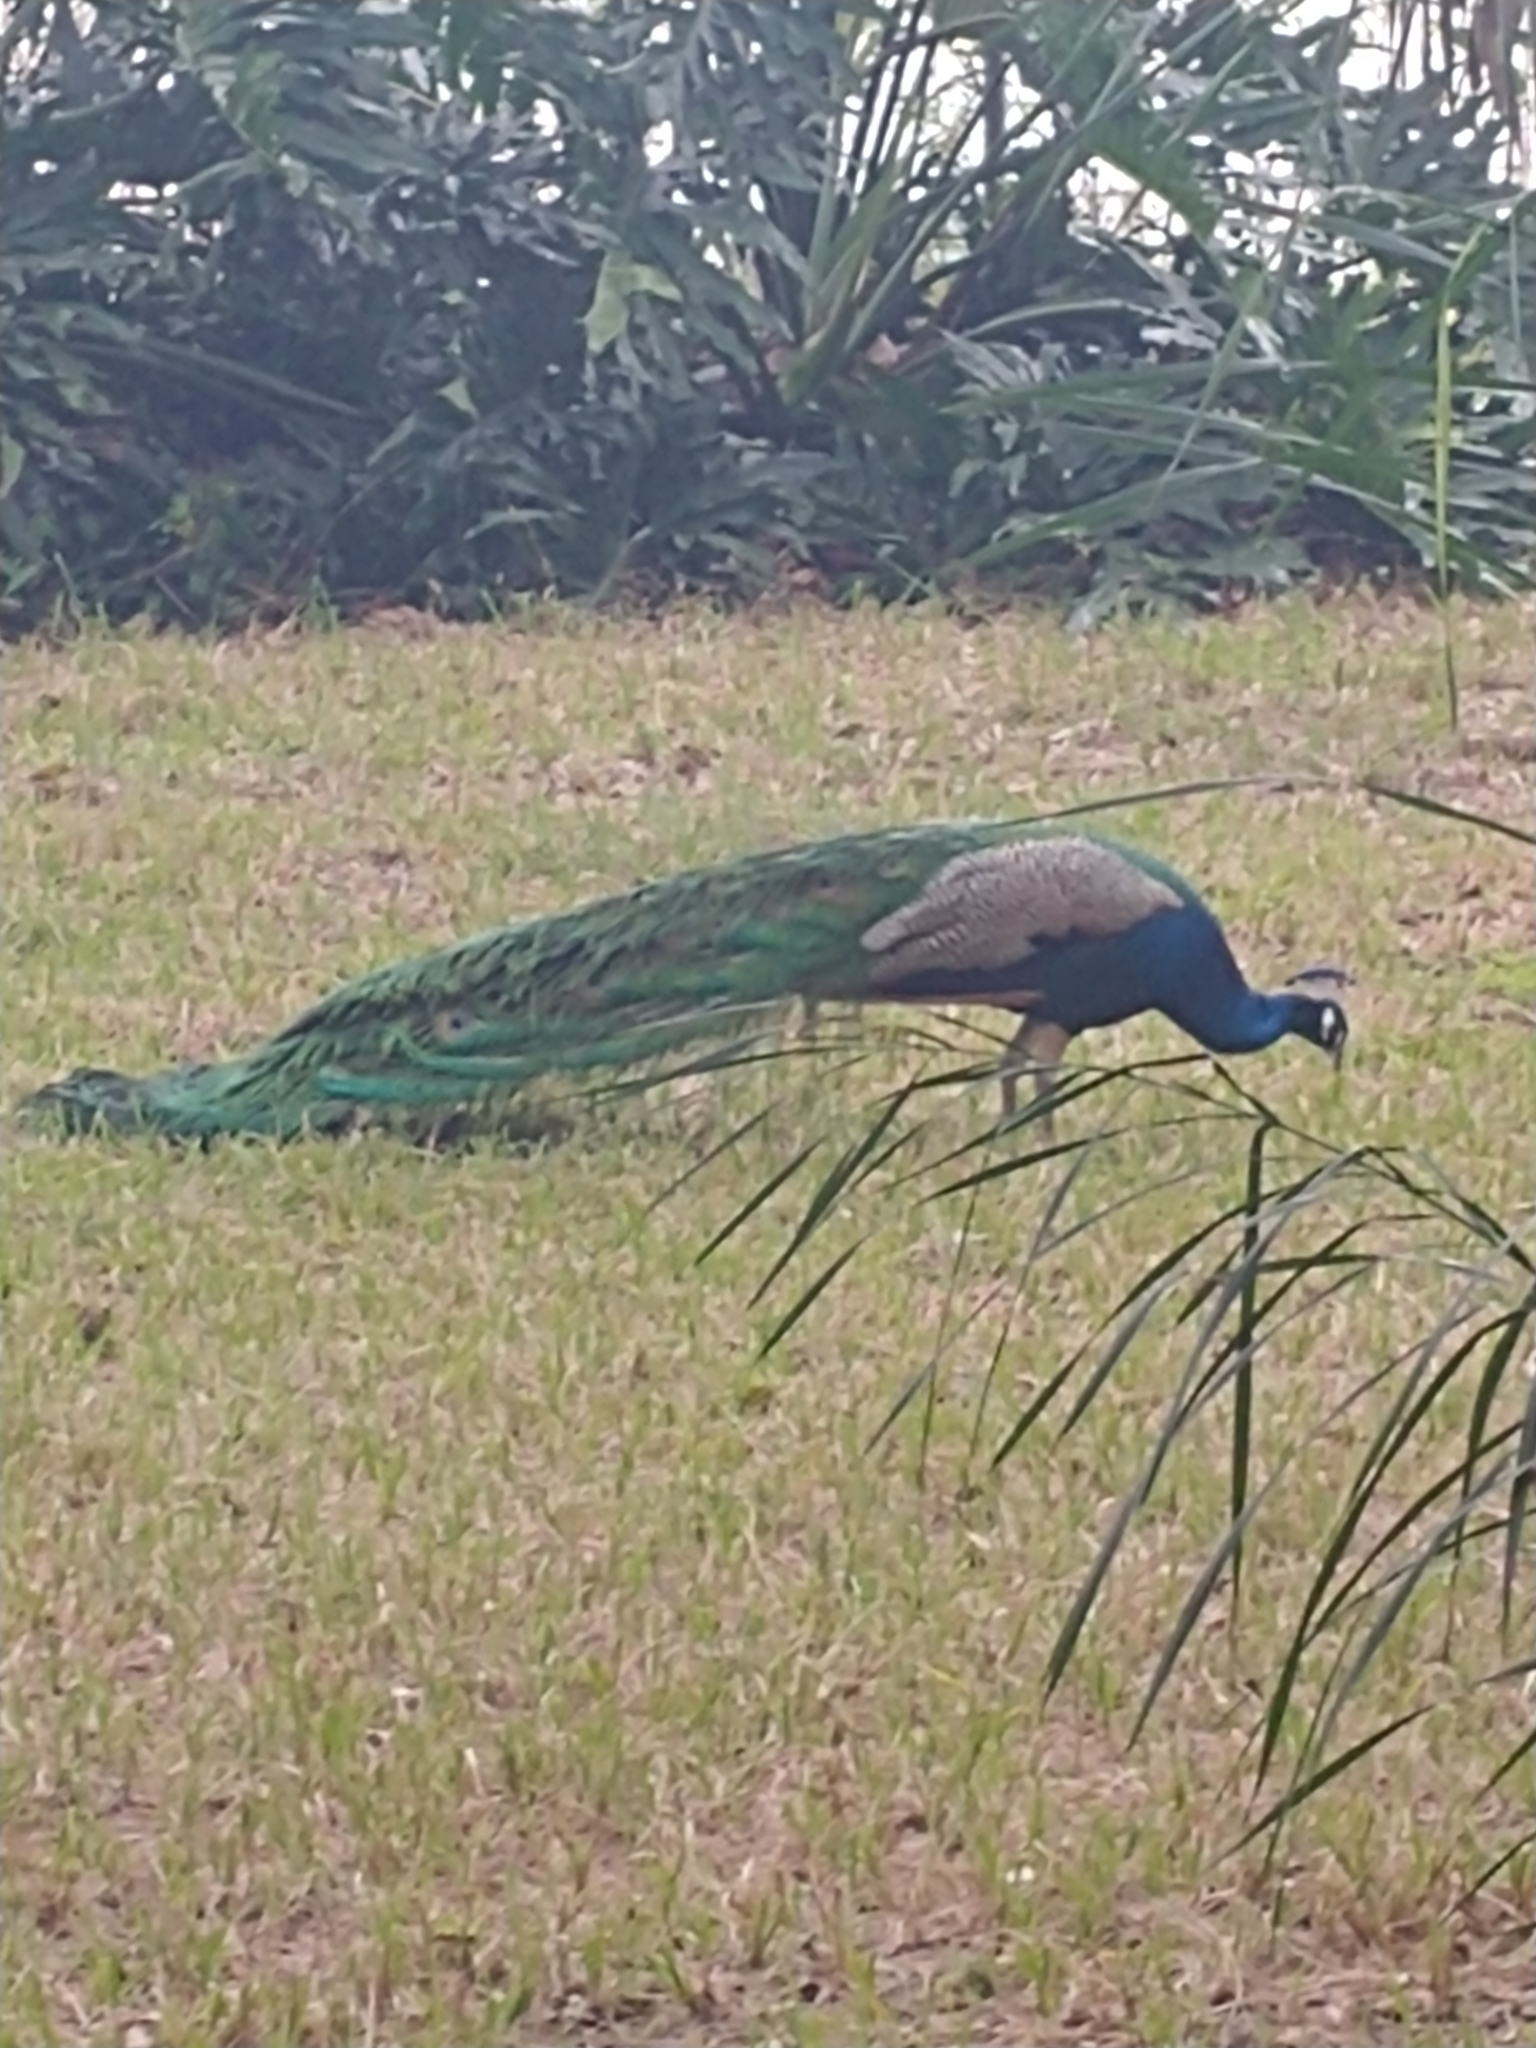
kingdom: Animalia
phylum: Chordata
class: Aves
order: Galliformes
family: Phasianidae
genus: Pavo
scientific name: Pavo cristatus
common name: Indian peafowl
